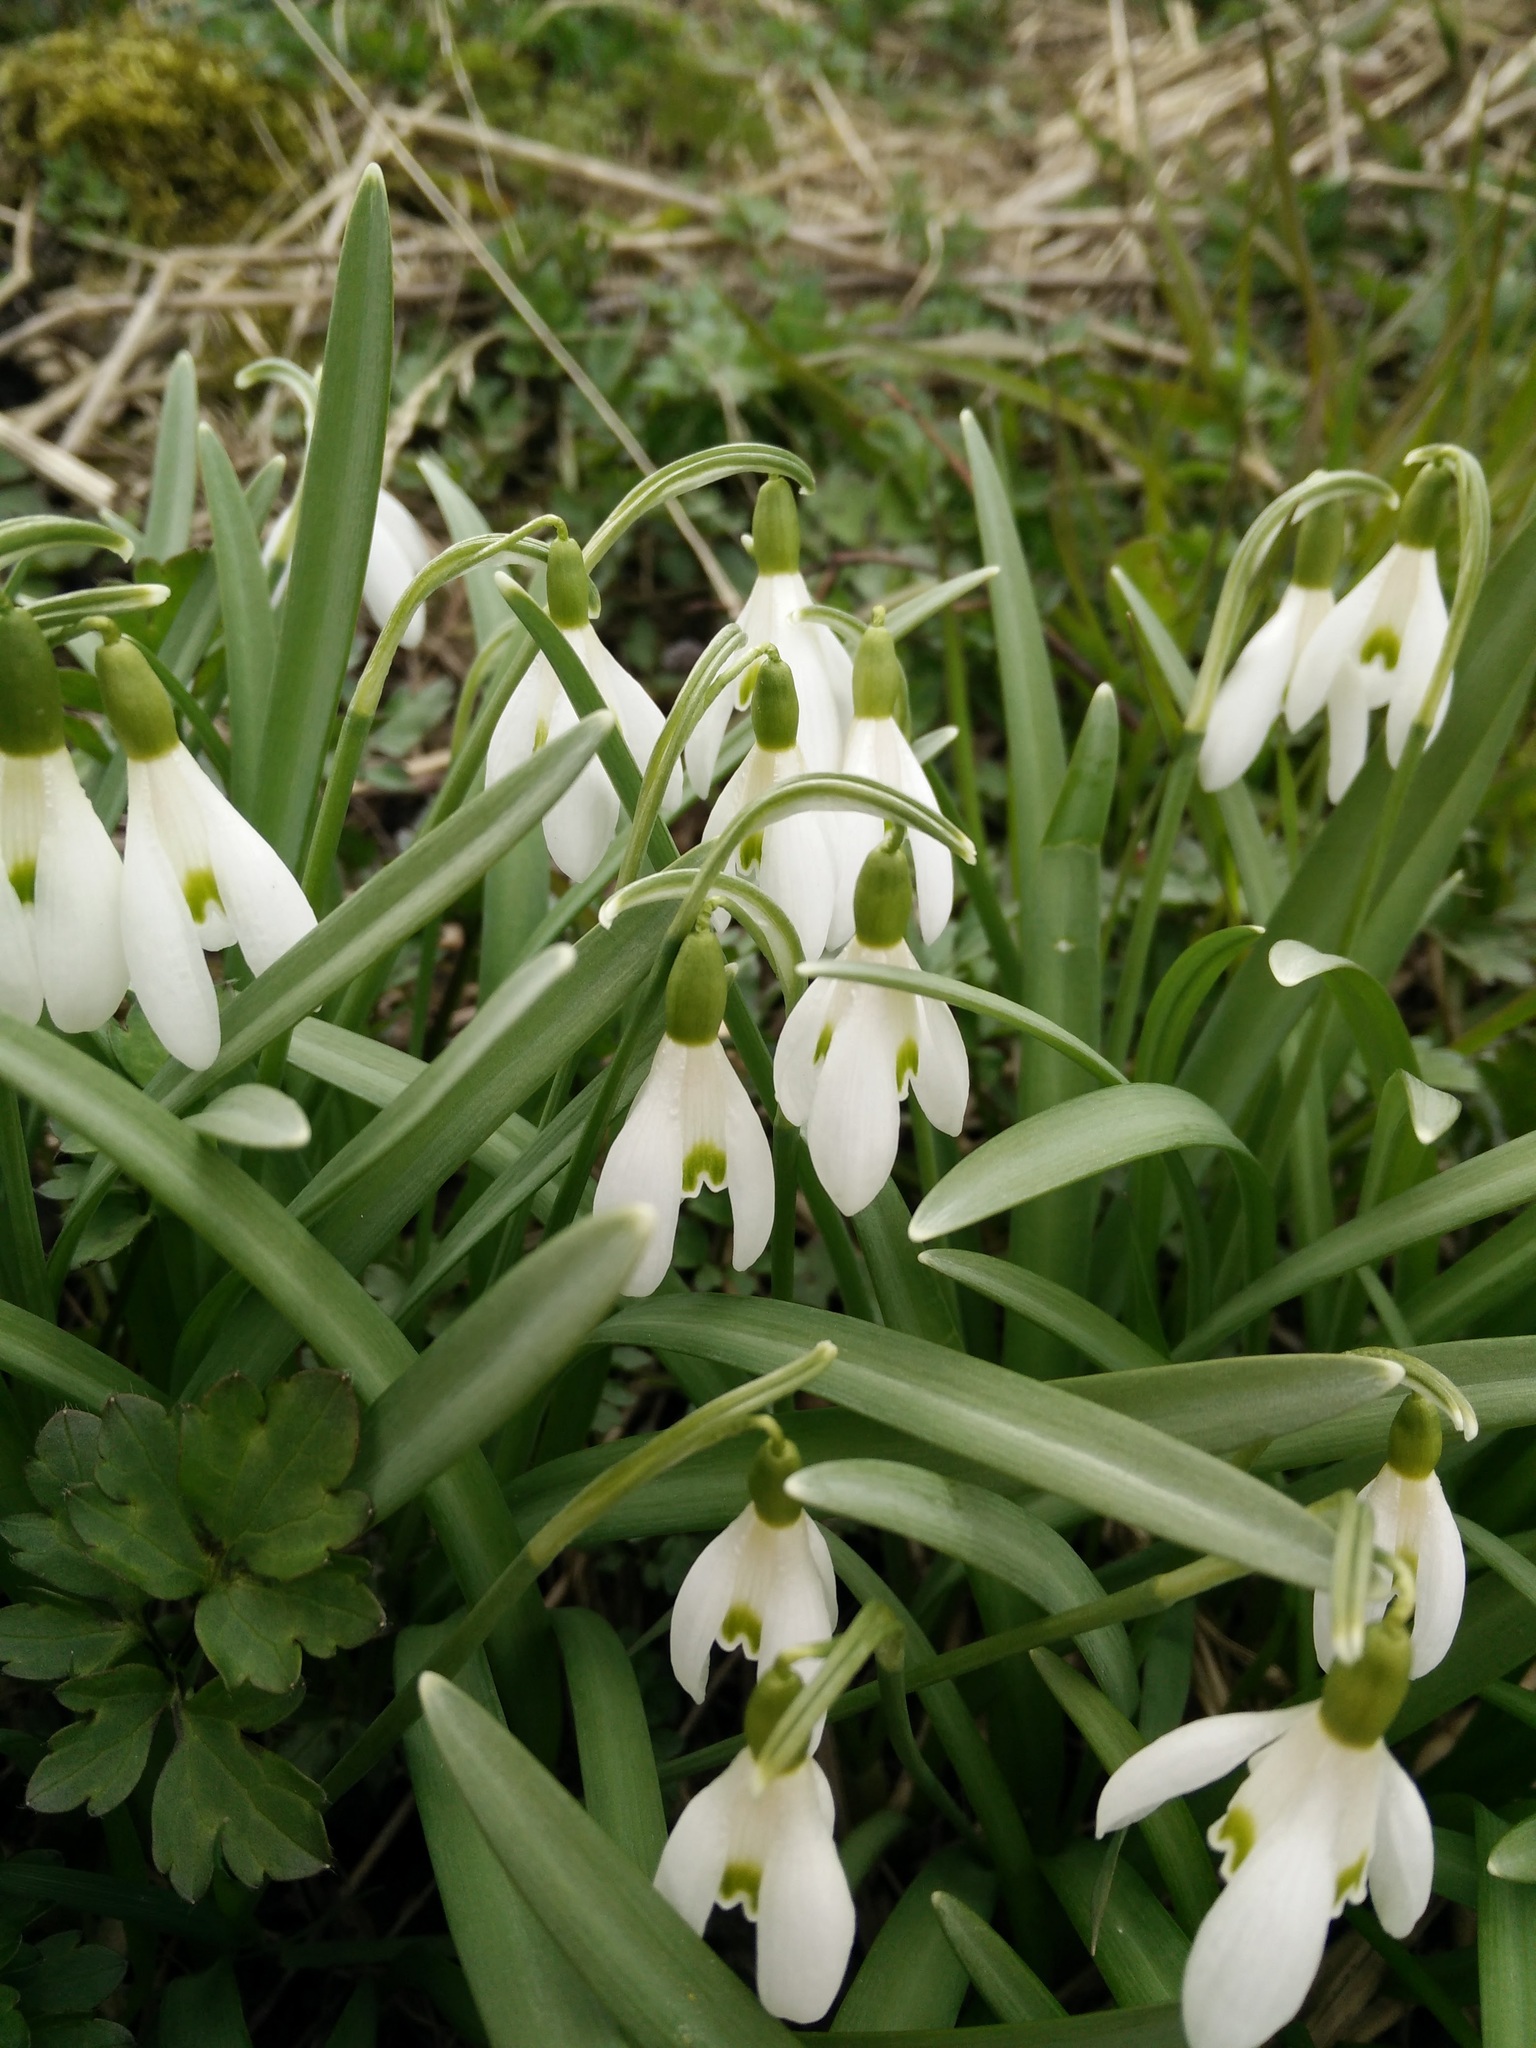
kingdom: Plantae
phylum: Tracheophyta
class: Liliopsida
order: Asparagales
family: Amaryllidaceae
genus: Galanthus
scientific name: Galanthus nivalis
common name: Snowdrop
